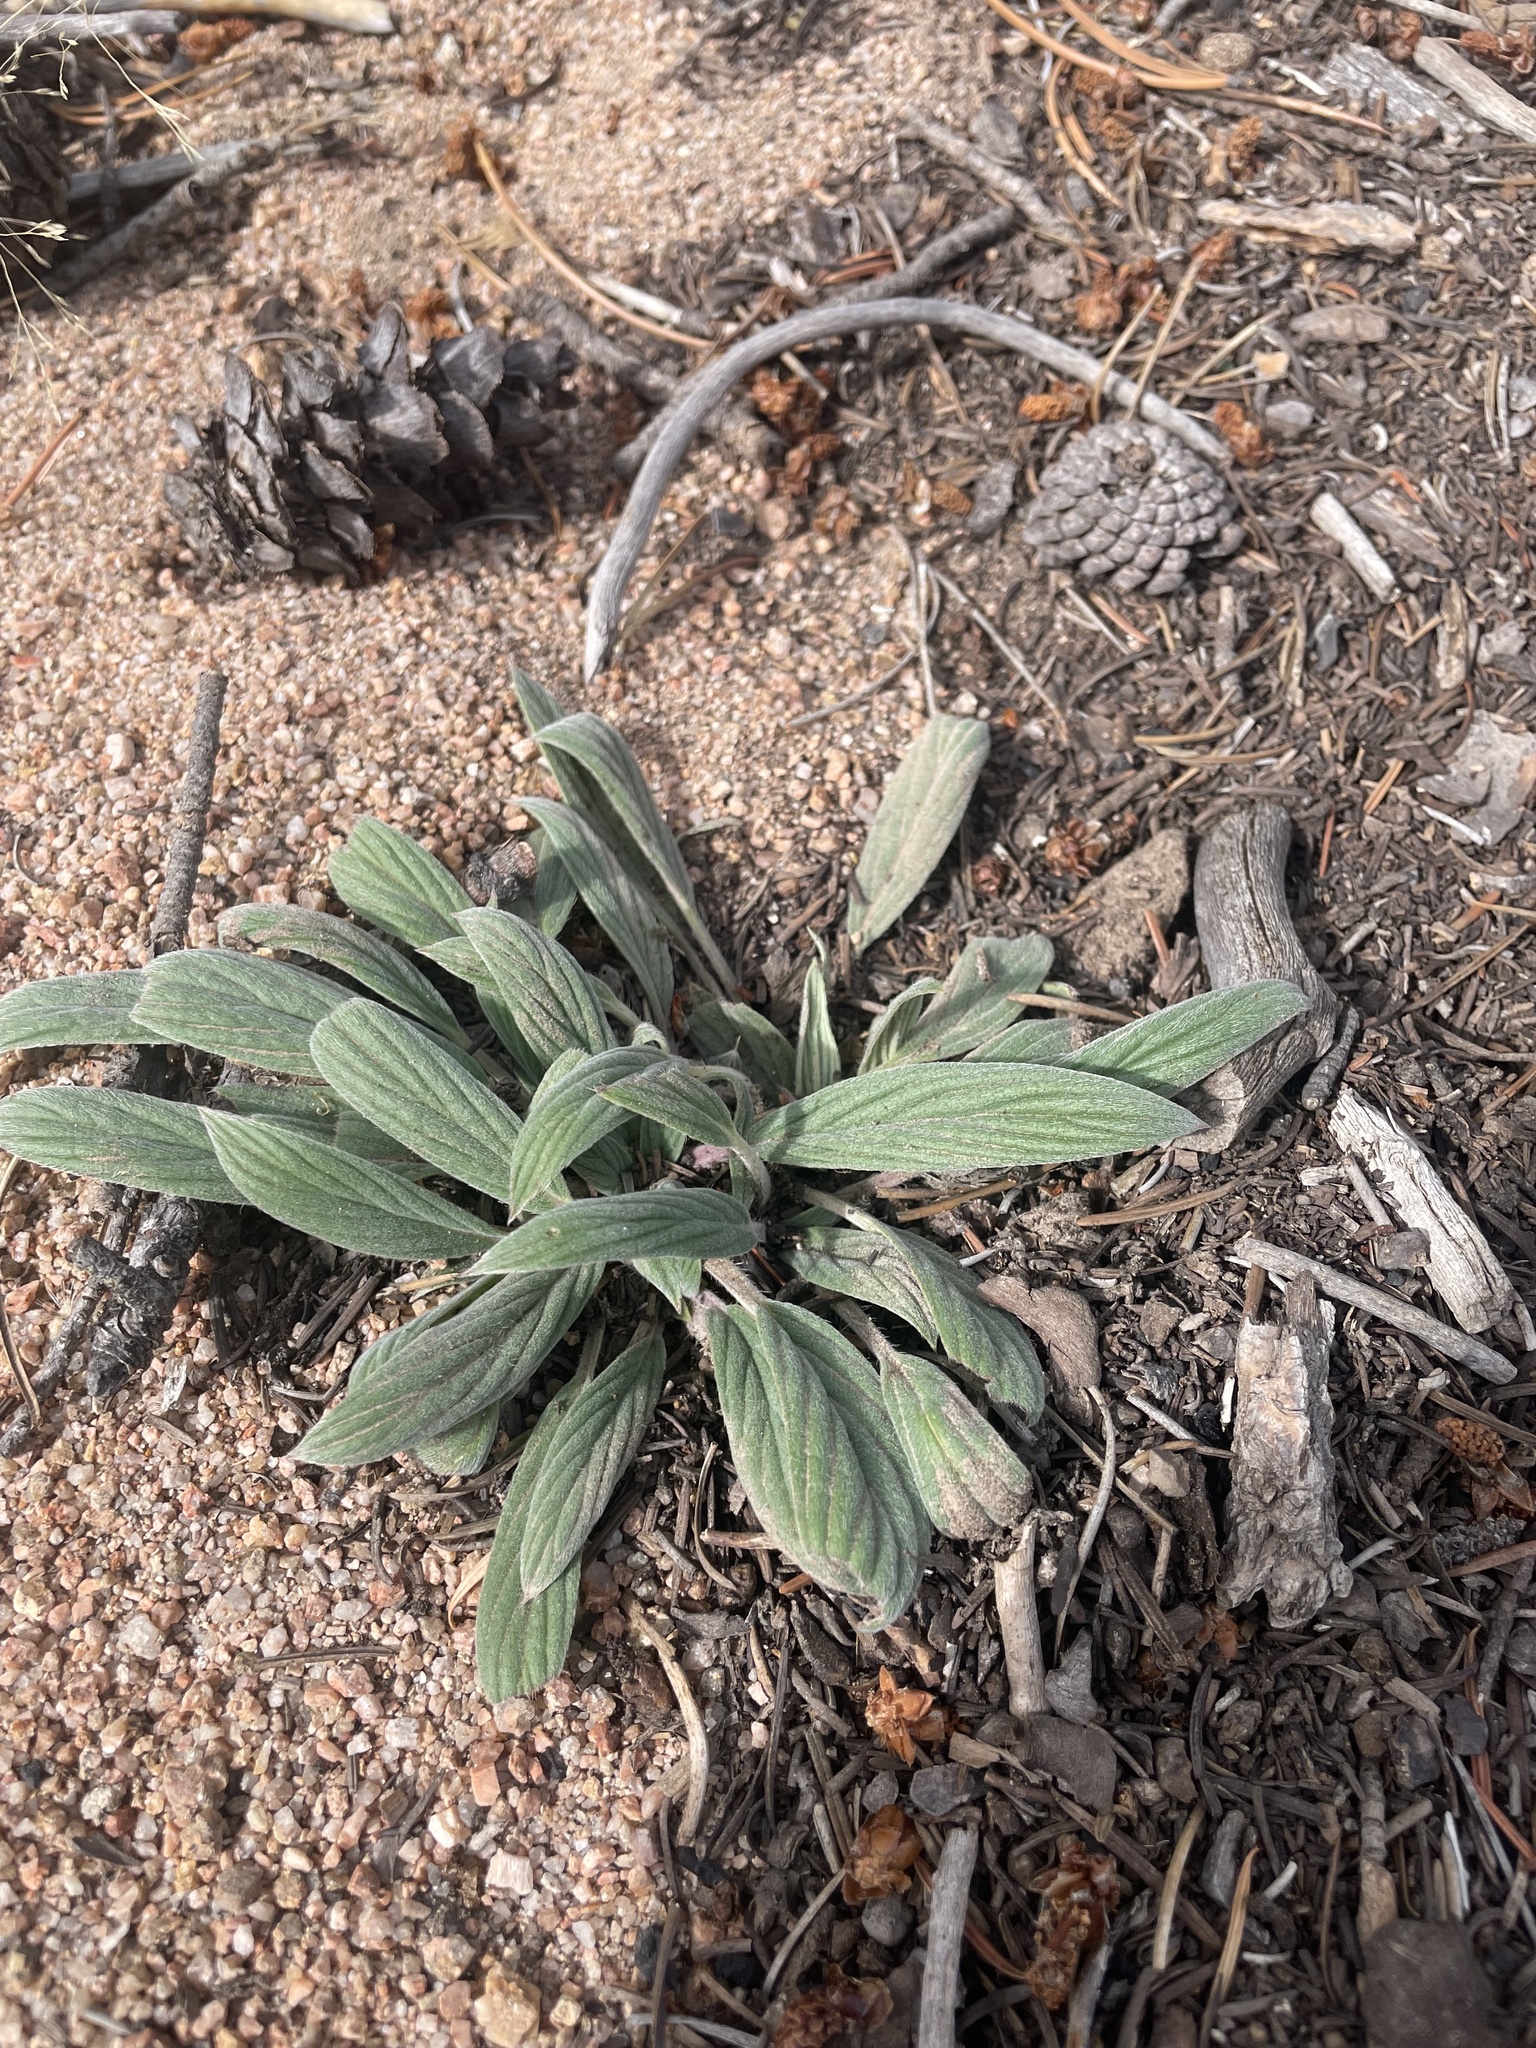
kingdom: Plantae
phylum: Tracheophyta
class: Magnoliopsida
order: Boraginales
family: Hydrophyllaceae
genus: Phacelia
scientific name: Phacelia hastata
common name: Silver-leaved phacelia
